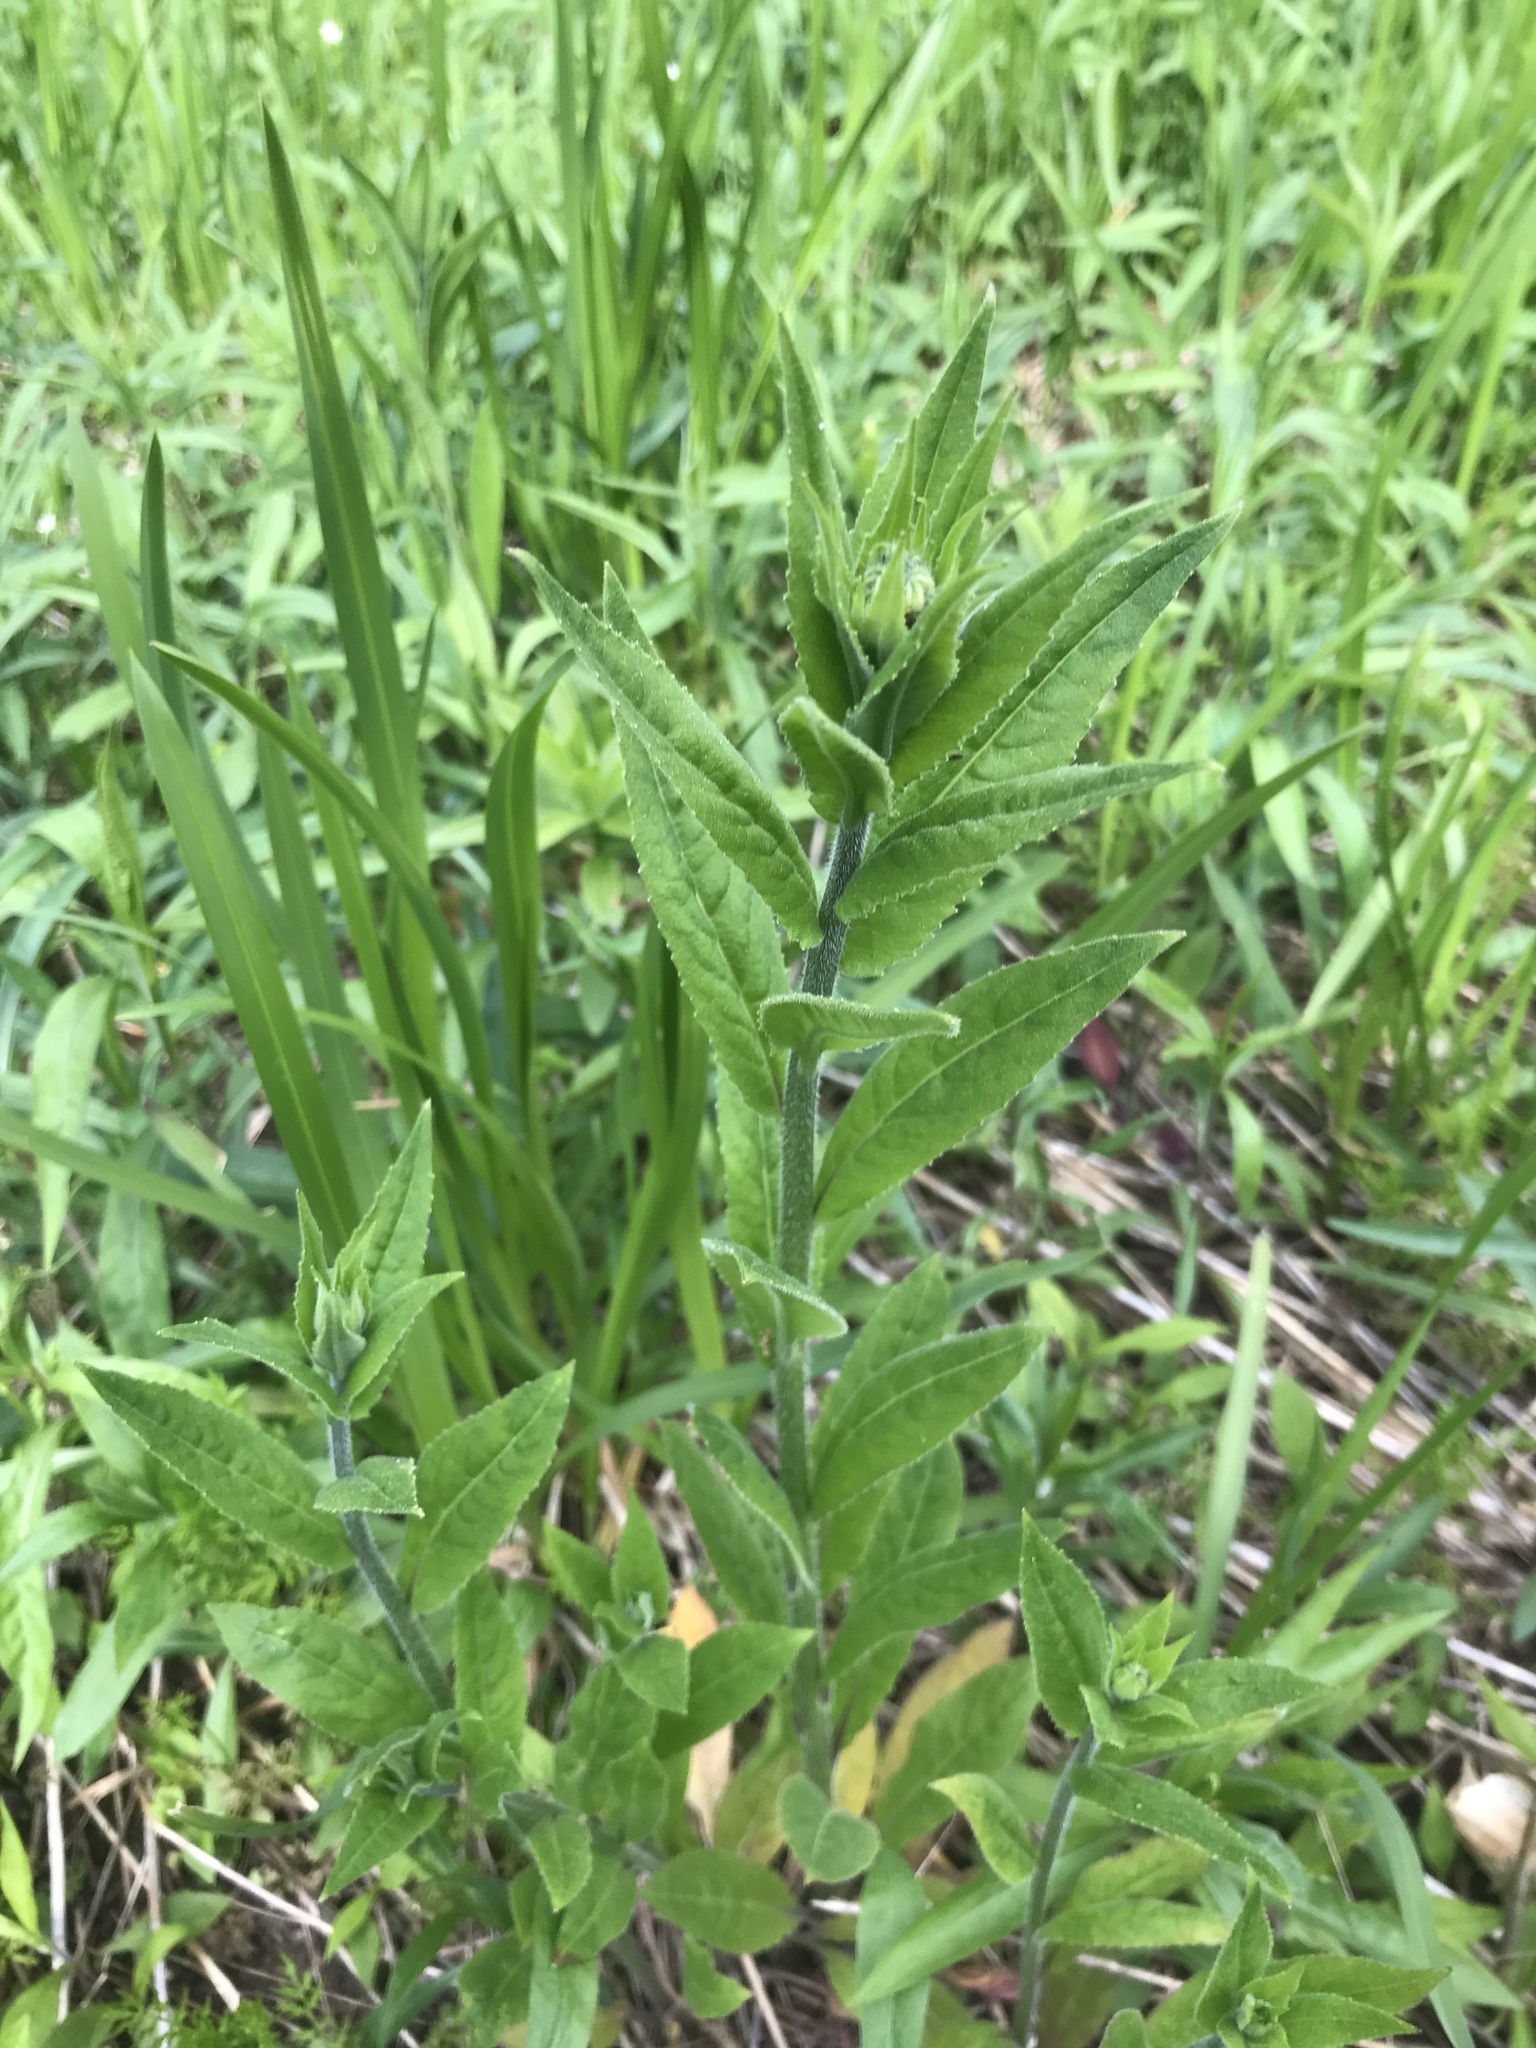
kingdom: Plantae
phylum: Tracheophyta
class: Magnoliopsida
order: Brassicales
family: Brassicaceae
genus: Hesperis
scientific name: Hesperis matronalis
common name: Dame's-violet
